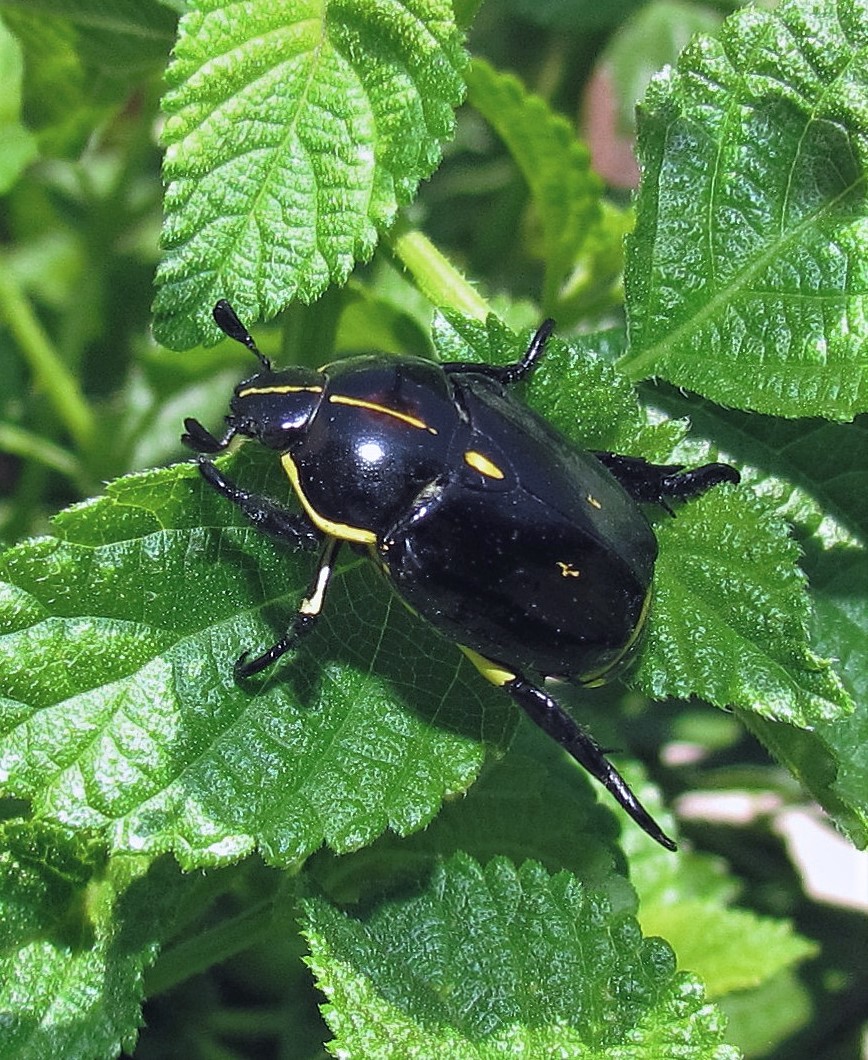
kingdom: Animalia
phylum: Arthropoda
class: Insecta
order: Coleoptera
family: Scarabaeidae
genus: Rutela
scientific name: Rutela lineola
